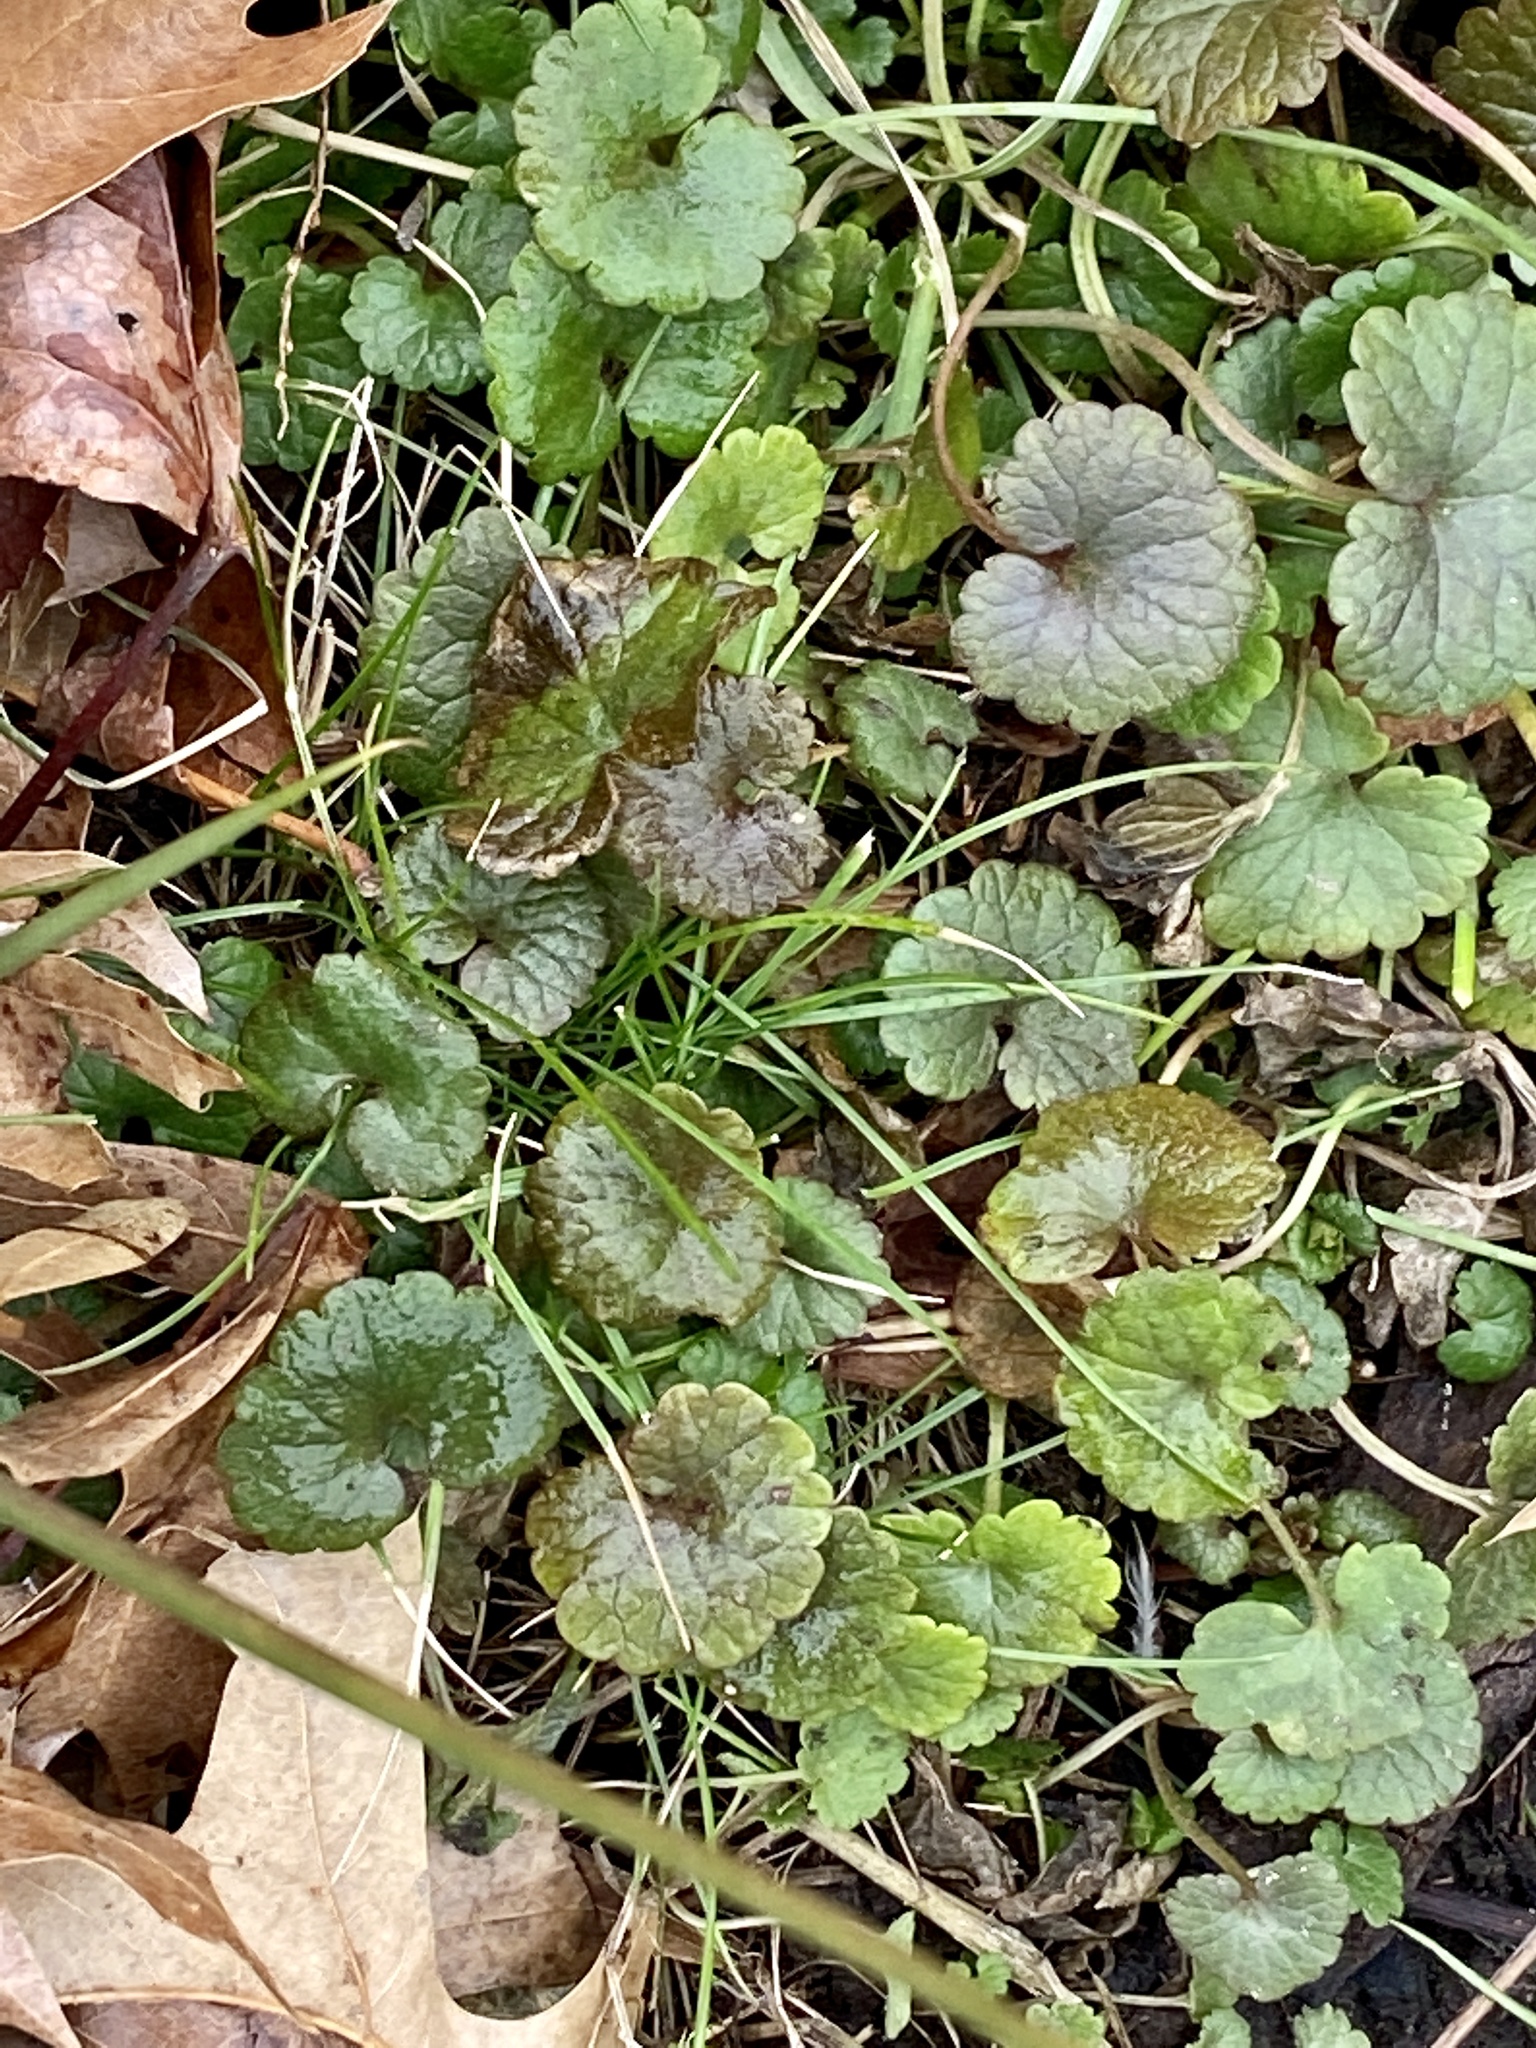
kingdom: Plantae
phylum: Tracheophyta
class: Magnoliopsida
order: Lamiales
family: Lamiaceae
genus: Glechoma
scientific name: Glechoma hederacea
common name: Ground ivy
